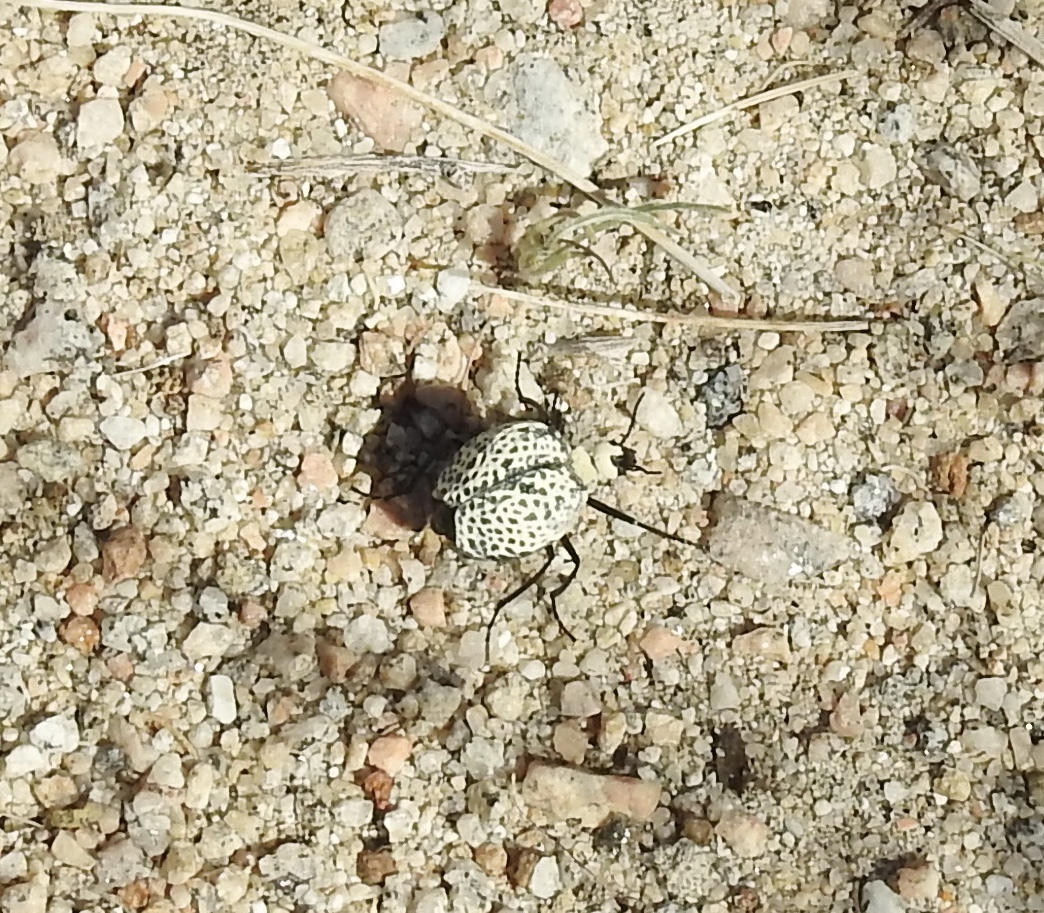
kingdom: Animalia
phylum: Arthropoda
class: Insecta
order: Coleoptera
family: Meloidae
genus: Cysteodemus
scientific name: Cysteodemus armatus
